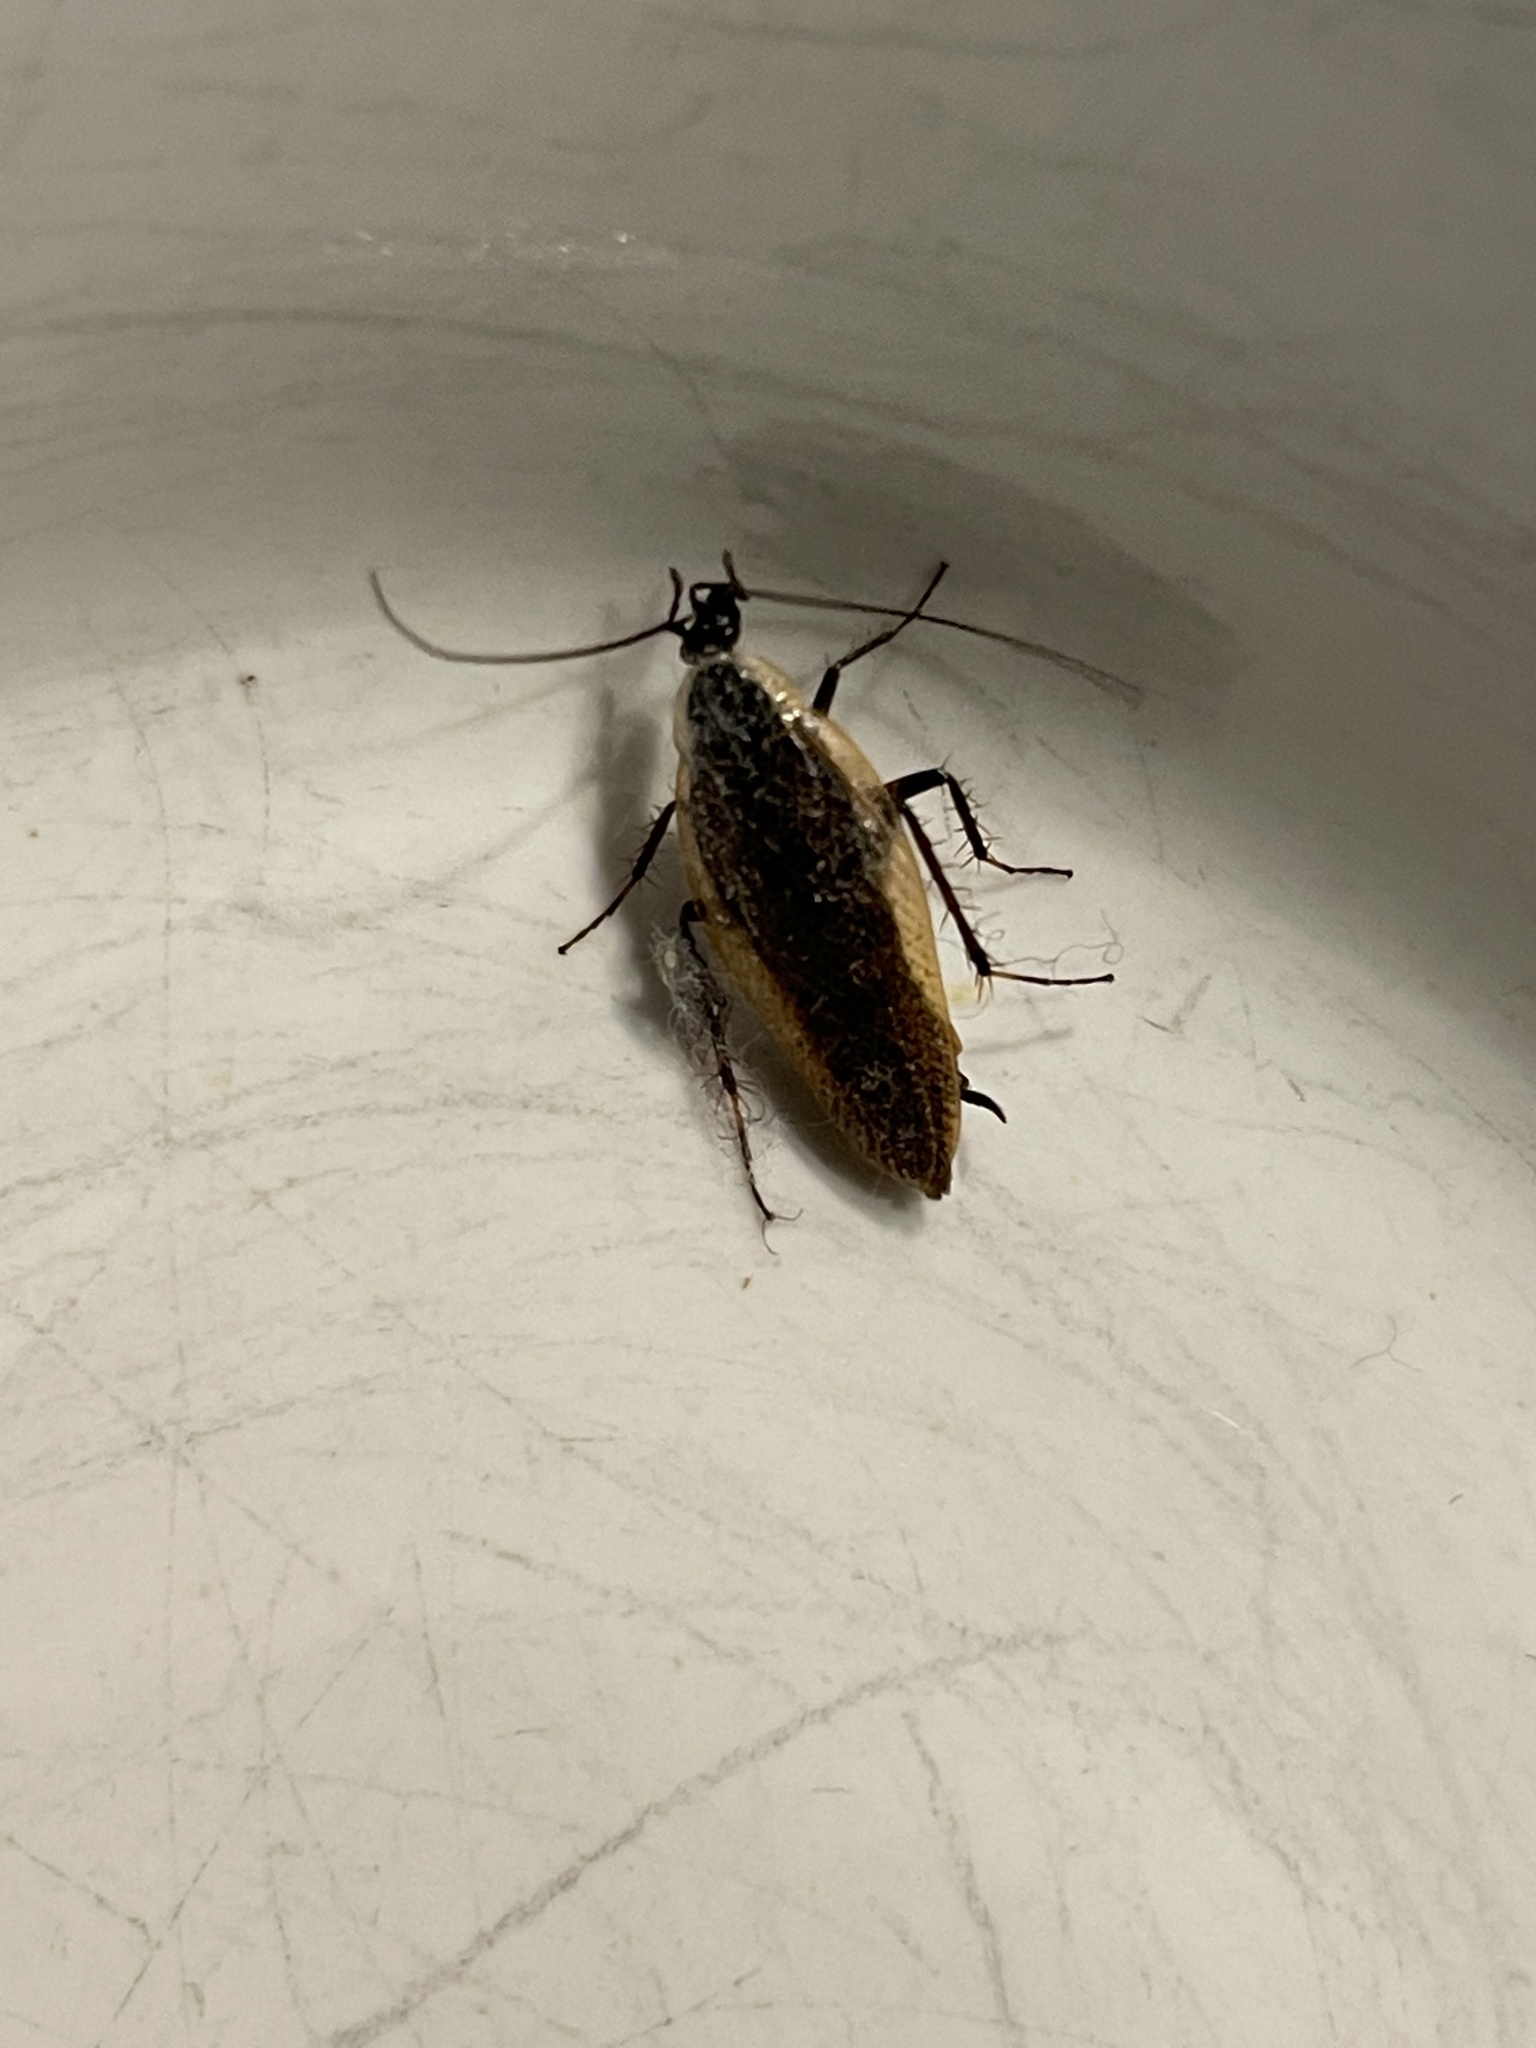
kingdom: Animalia
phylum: Arthropoda
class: Insecta
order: Blattodea
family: Ectobiidae
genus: Ectobius
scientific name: Ectobius lapponicus
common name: Dusky cockroach
